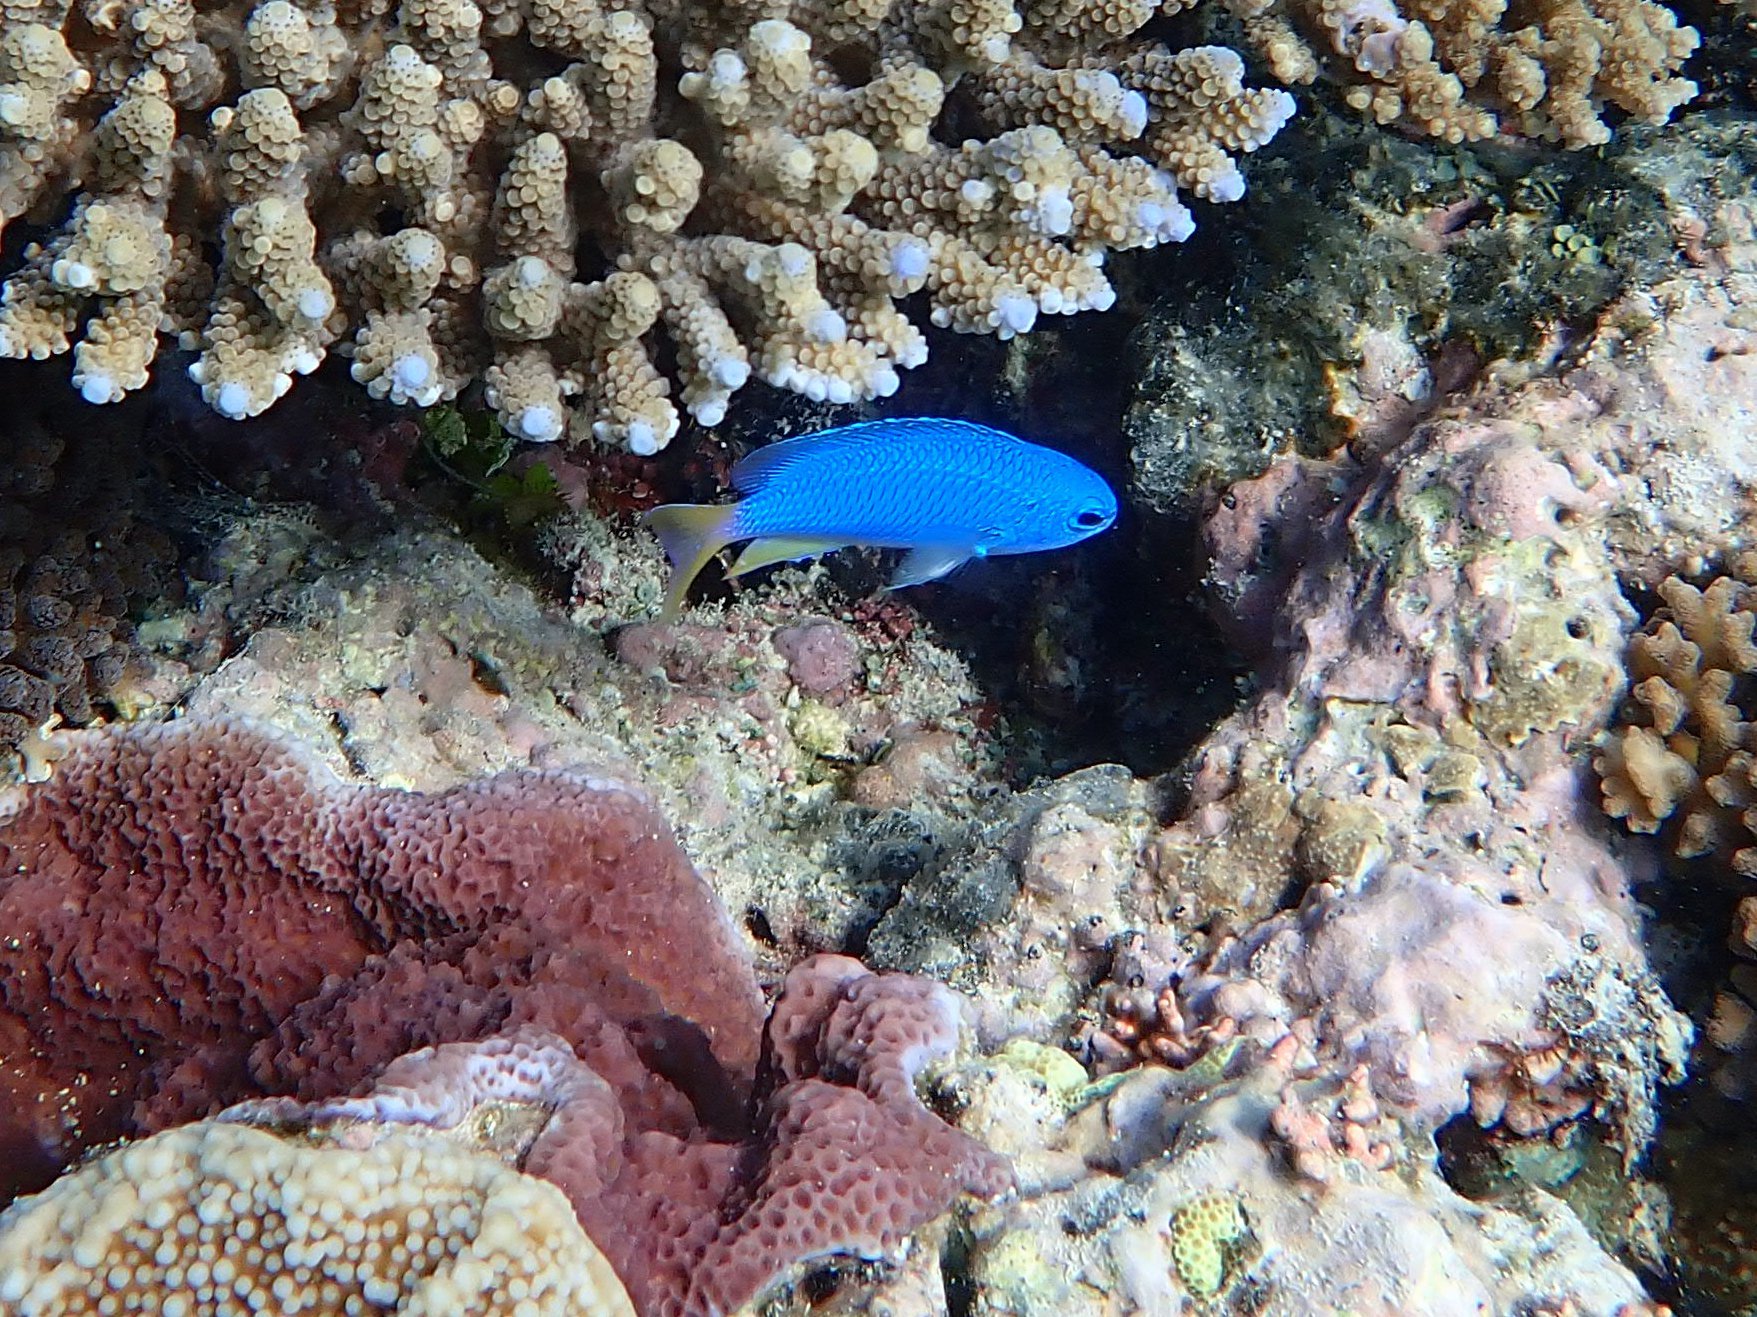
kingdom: Animalia
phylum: Chordata
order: Perciformes
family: Pomacentridae
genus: Pomacentrus
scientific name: Pomacentrus coelestis
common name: Neon damsel
